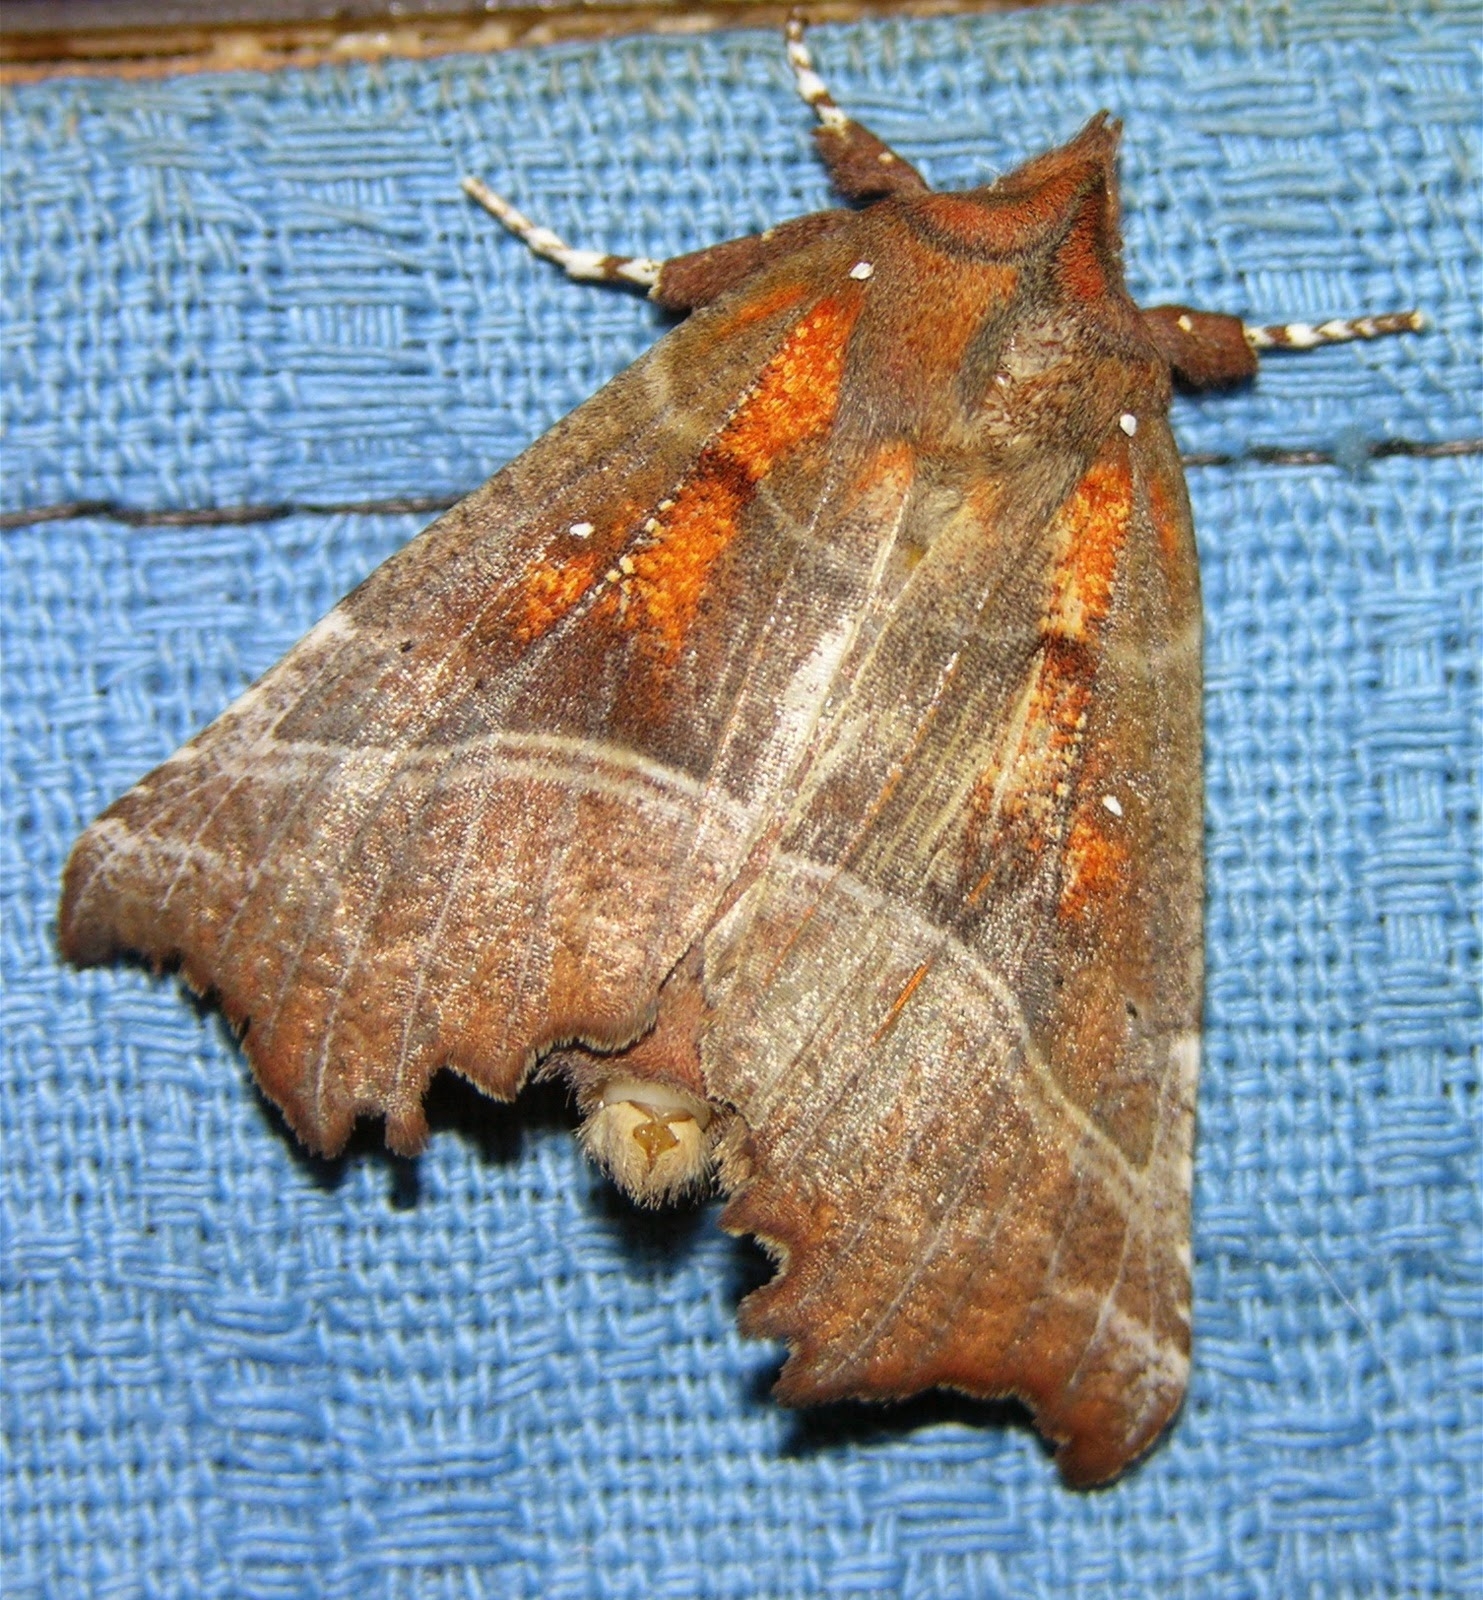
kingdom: Animalia
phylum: Arthropoda
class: Insecta
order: Lepidoptera
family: Erebidae
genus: Scoliopteryx
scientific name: Scoliopteryx libatrix
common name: Herald
